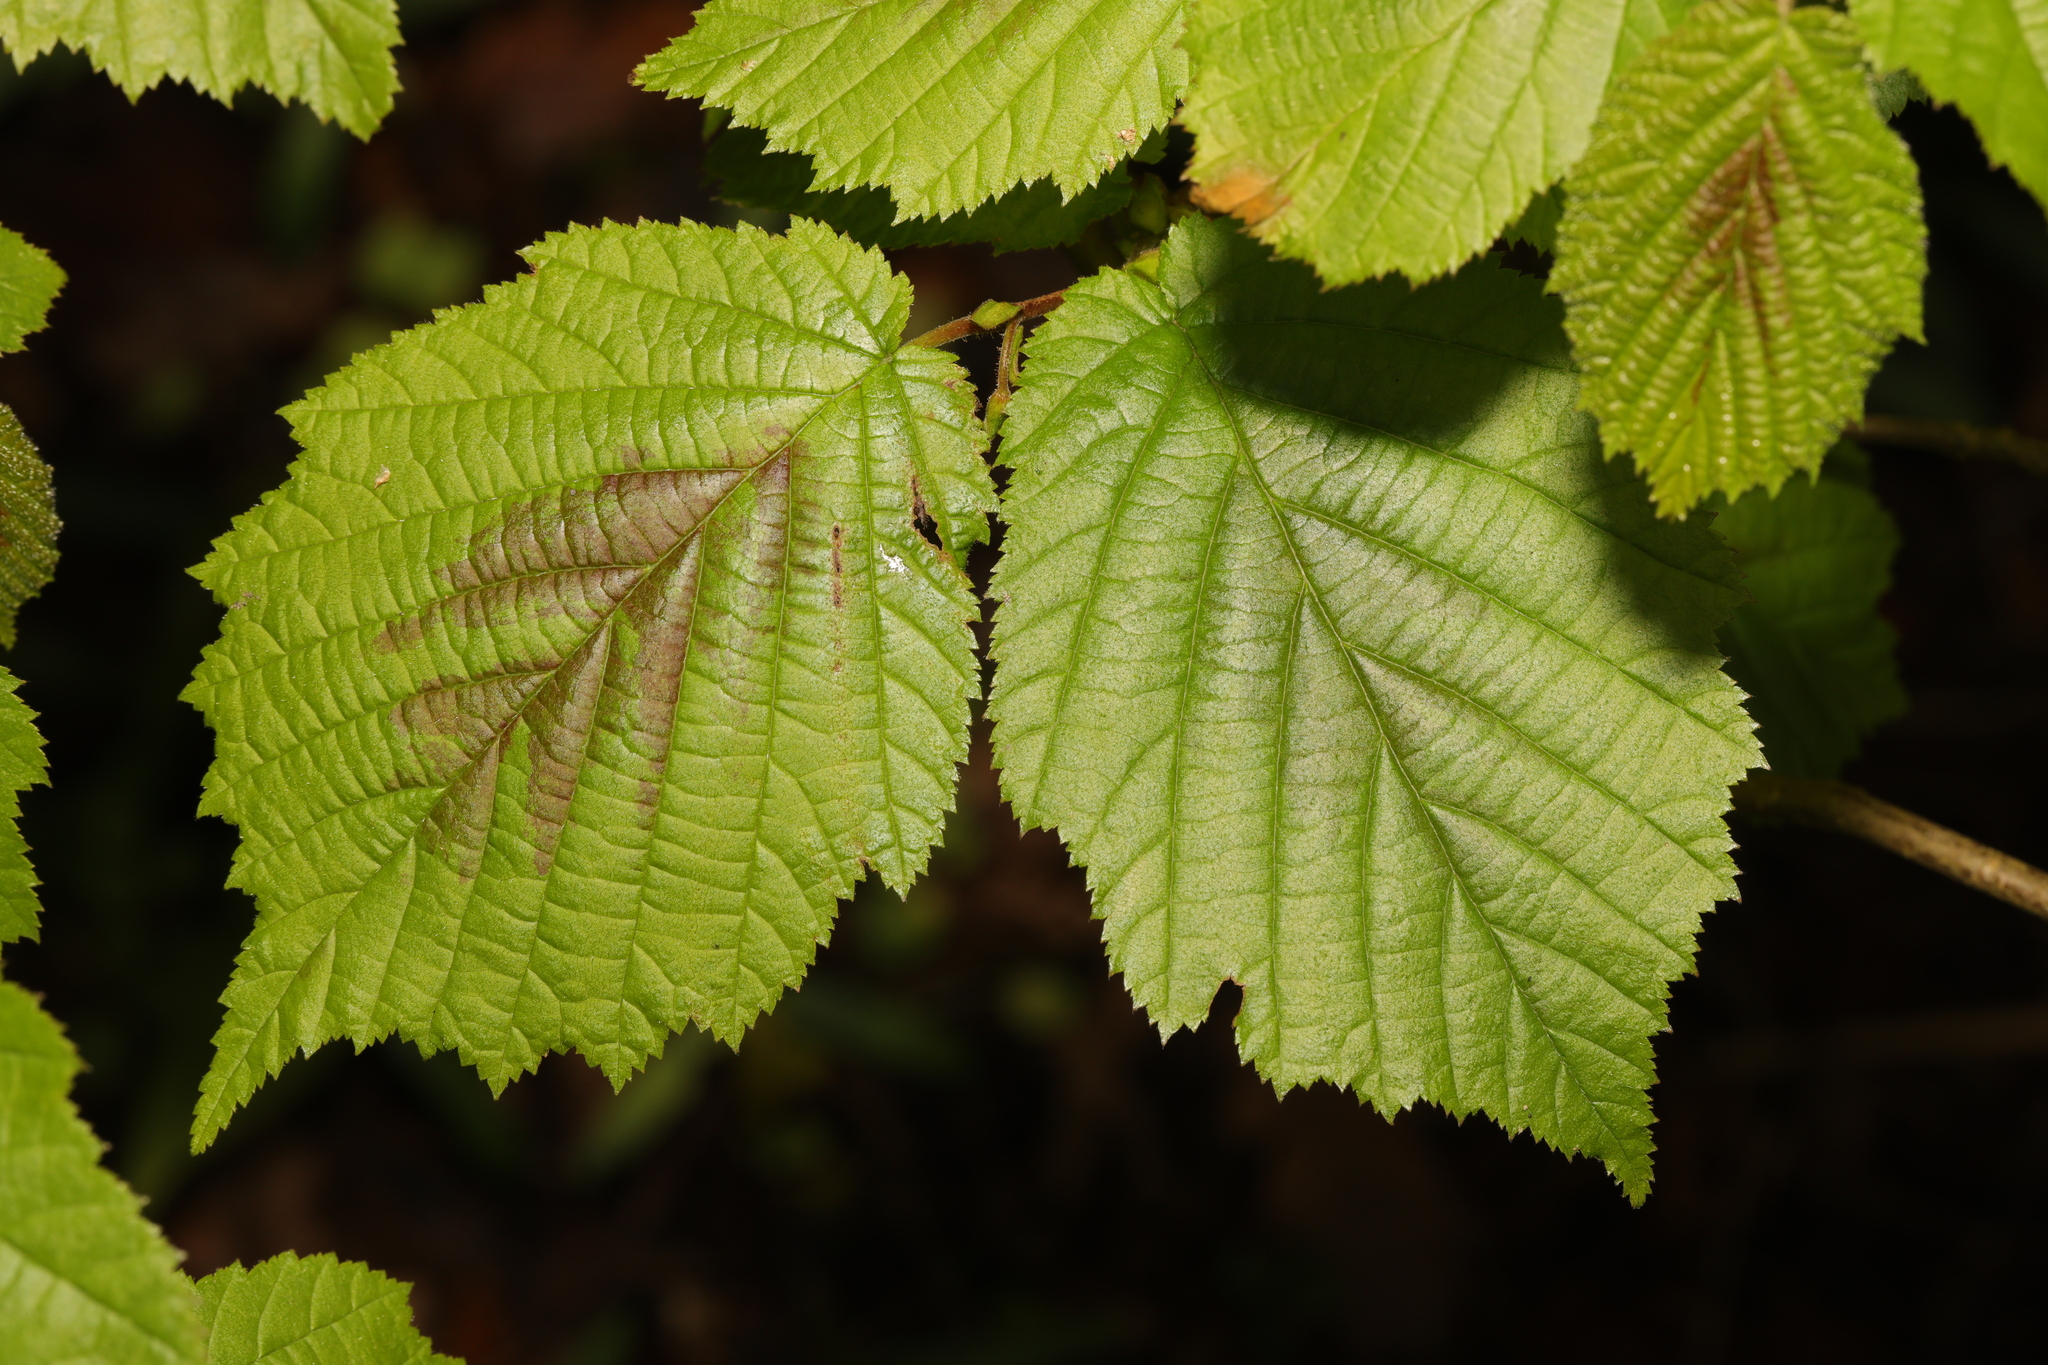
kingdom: Plantae
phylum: Tracheophyta
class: Magnoliopsida
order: Fagales
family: Betulaceae
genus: Corylus
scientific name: Corylus avellana
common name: European hazel
